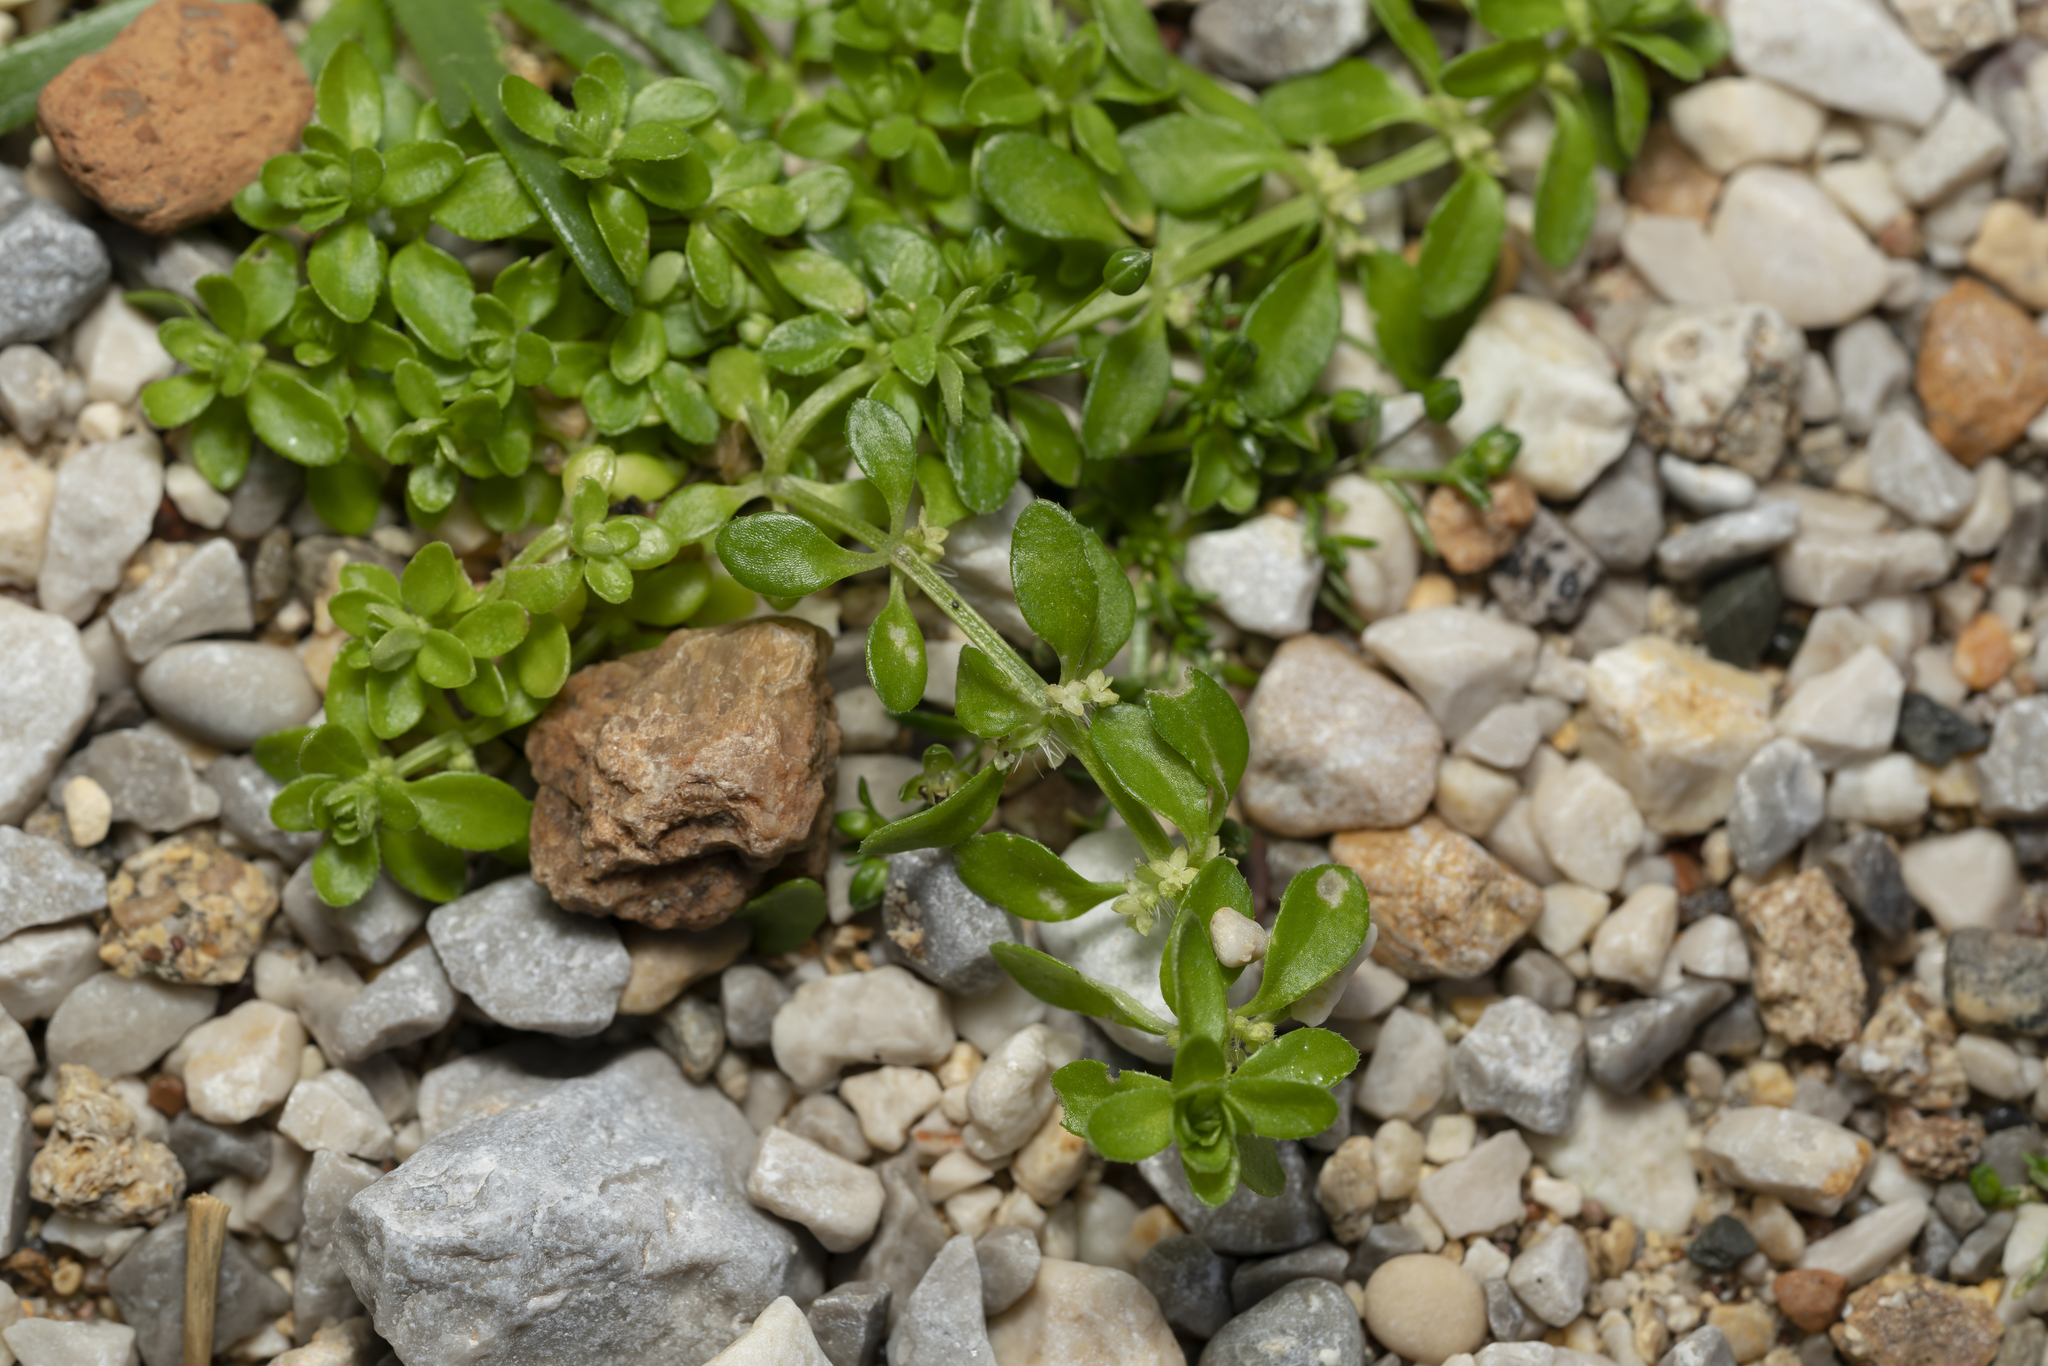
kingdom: Plantae
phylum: Tracheophyta
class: Magnoliopsida
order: Gentianales
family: Rubiaceae
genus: Valantia
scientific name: Valantia muralis
